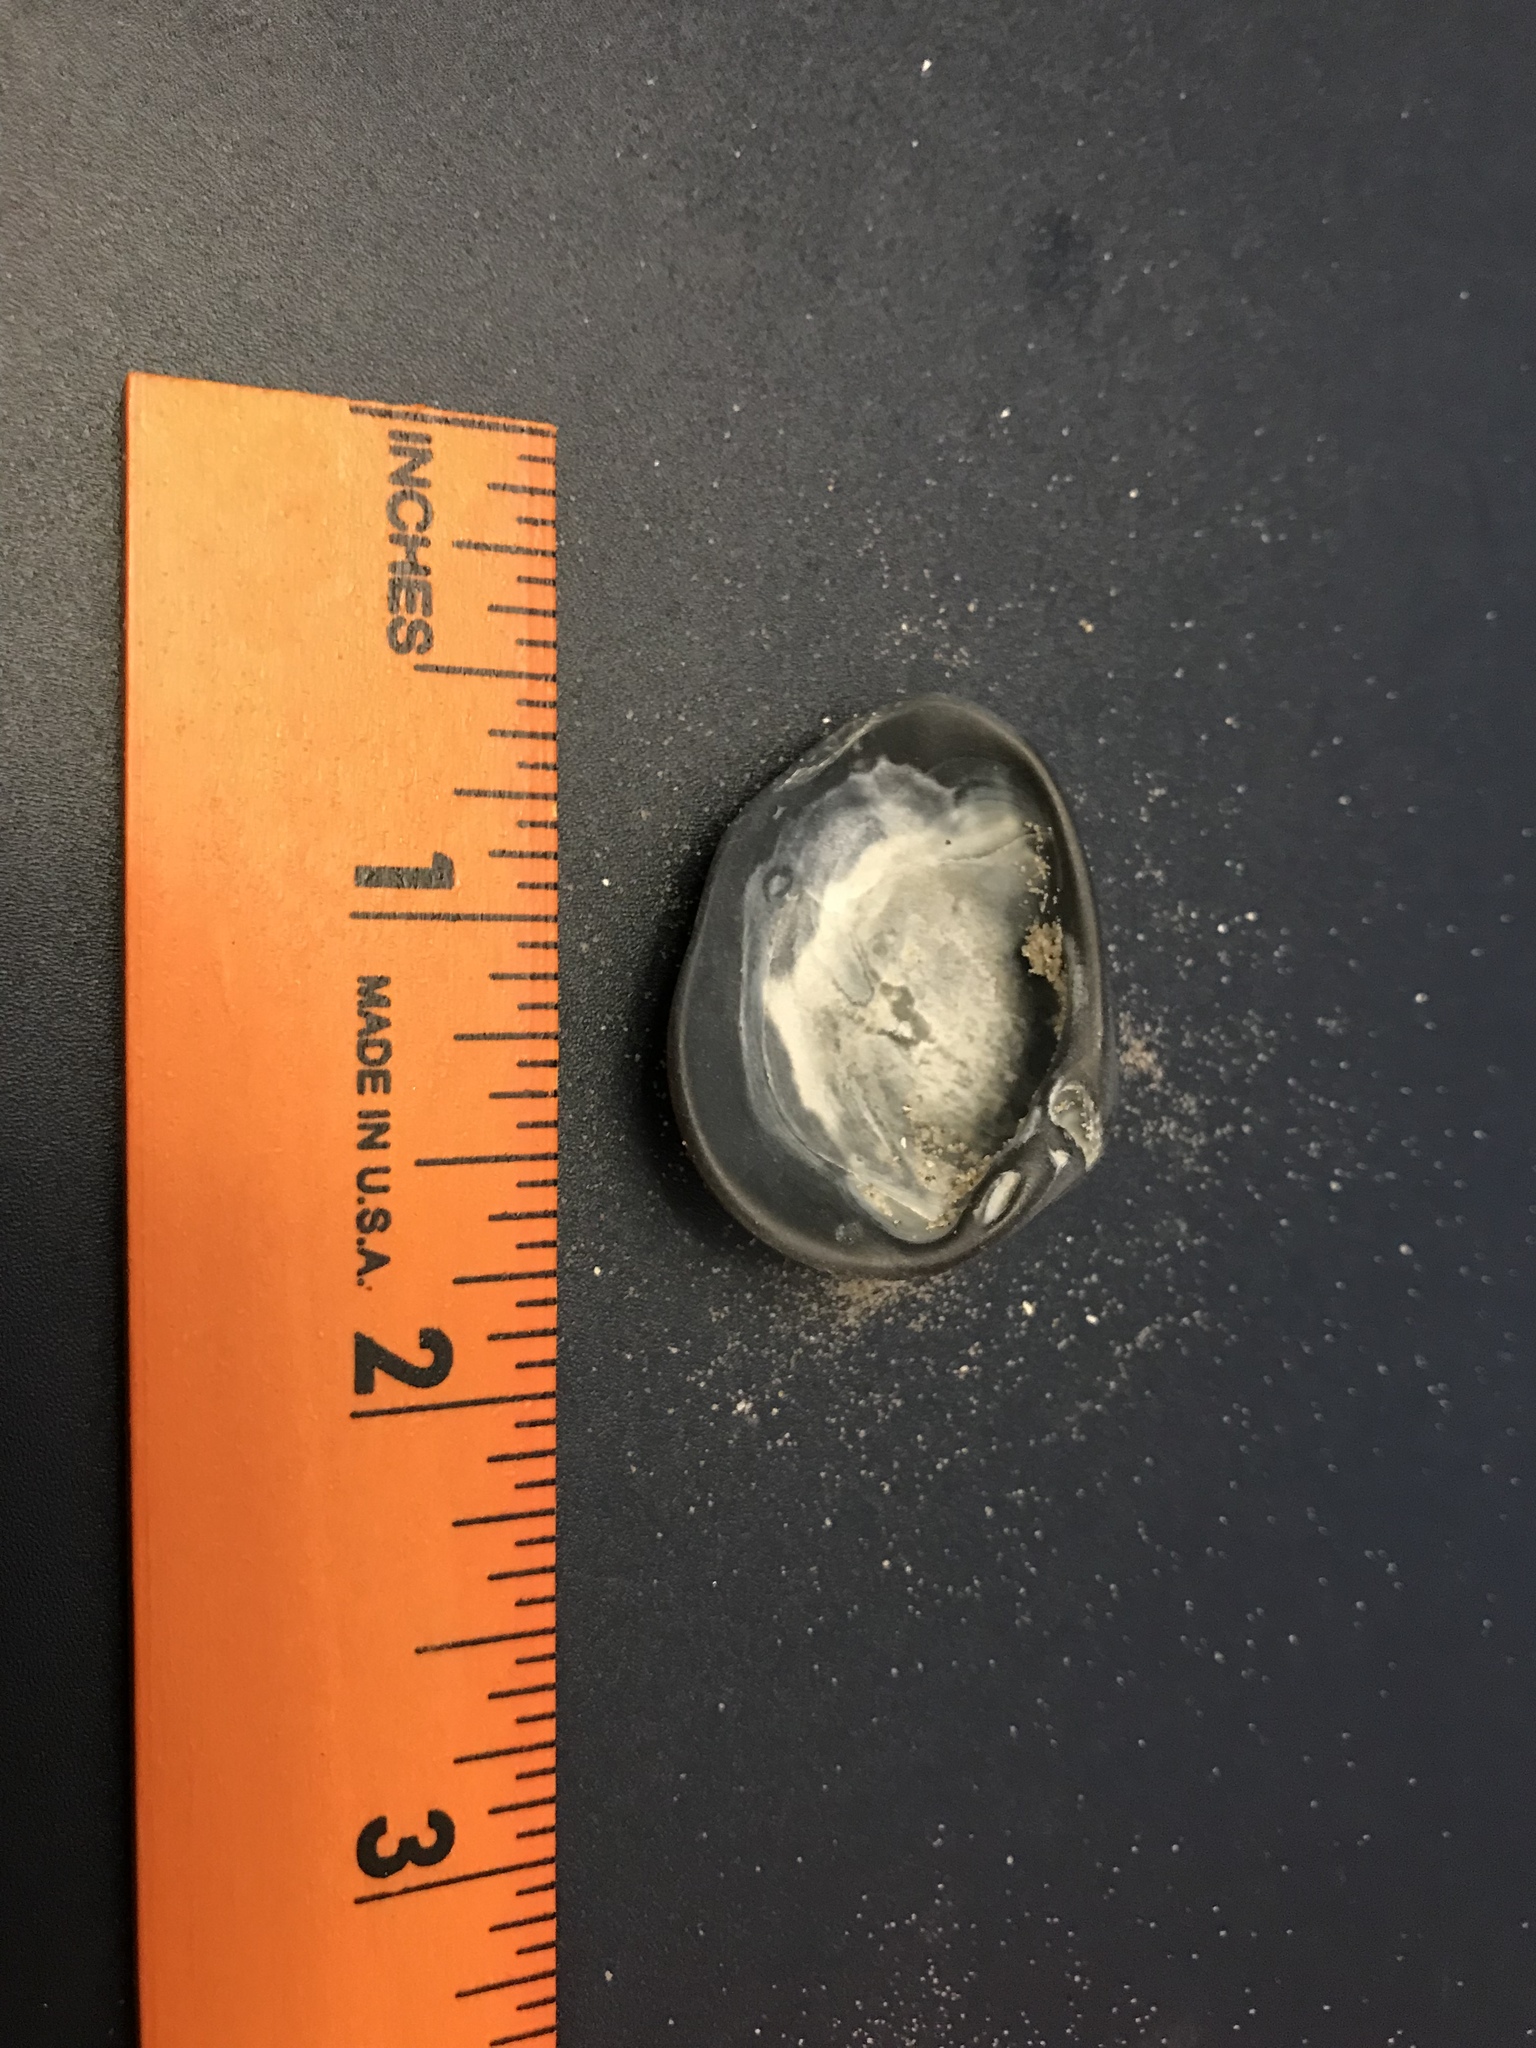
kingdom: Animalia
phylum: Mollusca
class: Bivalvia
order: Venerida
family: Mactridae
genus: Rangia
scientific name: Rangia cuneata
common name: Atlantic rangia
